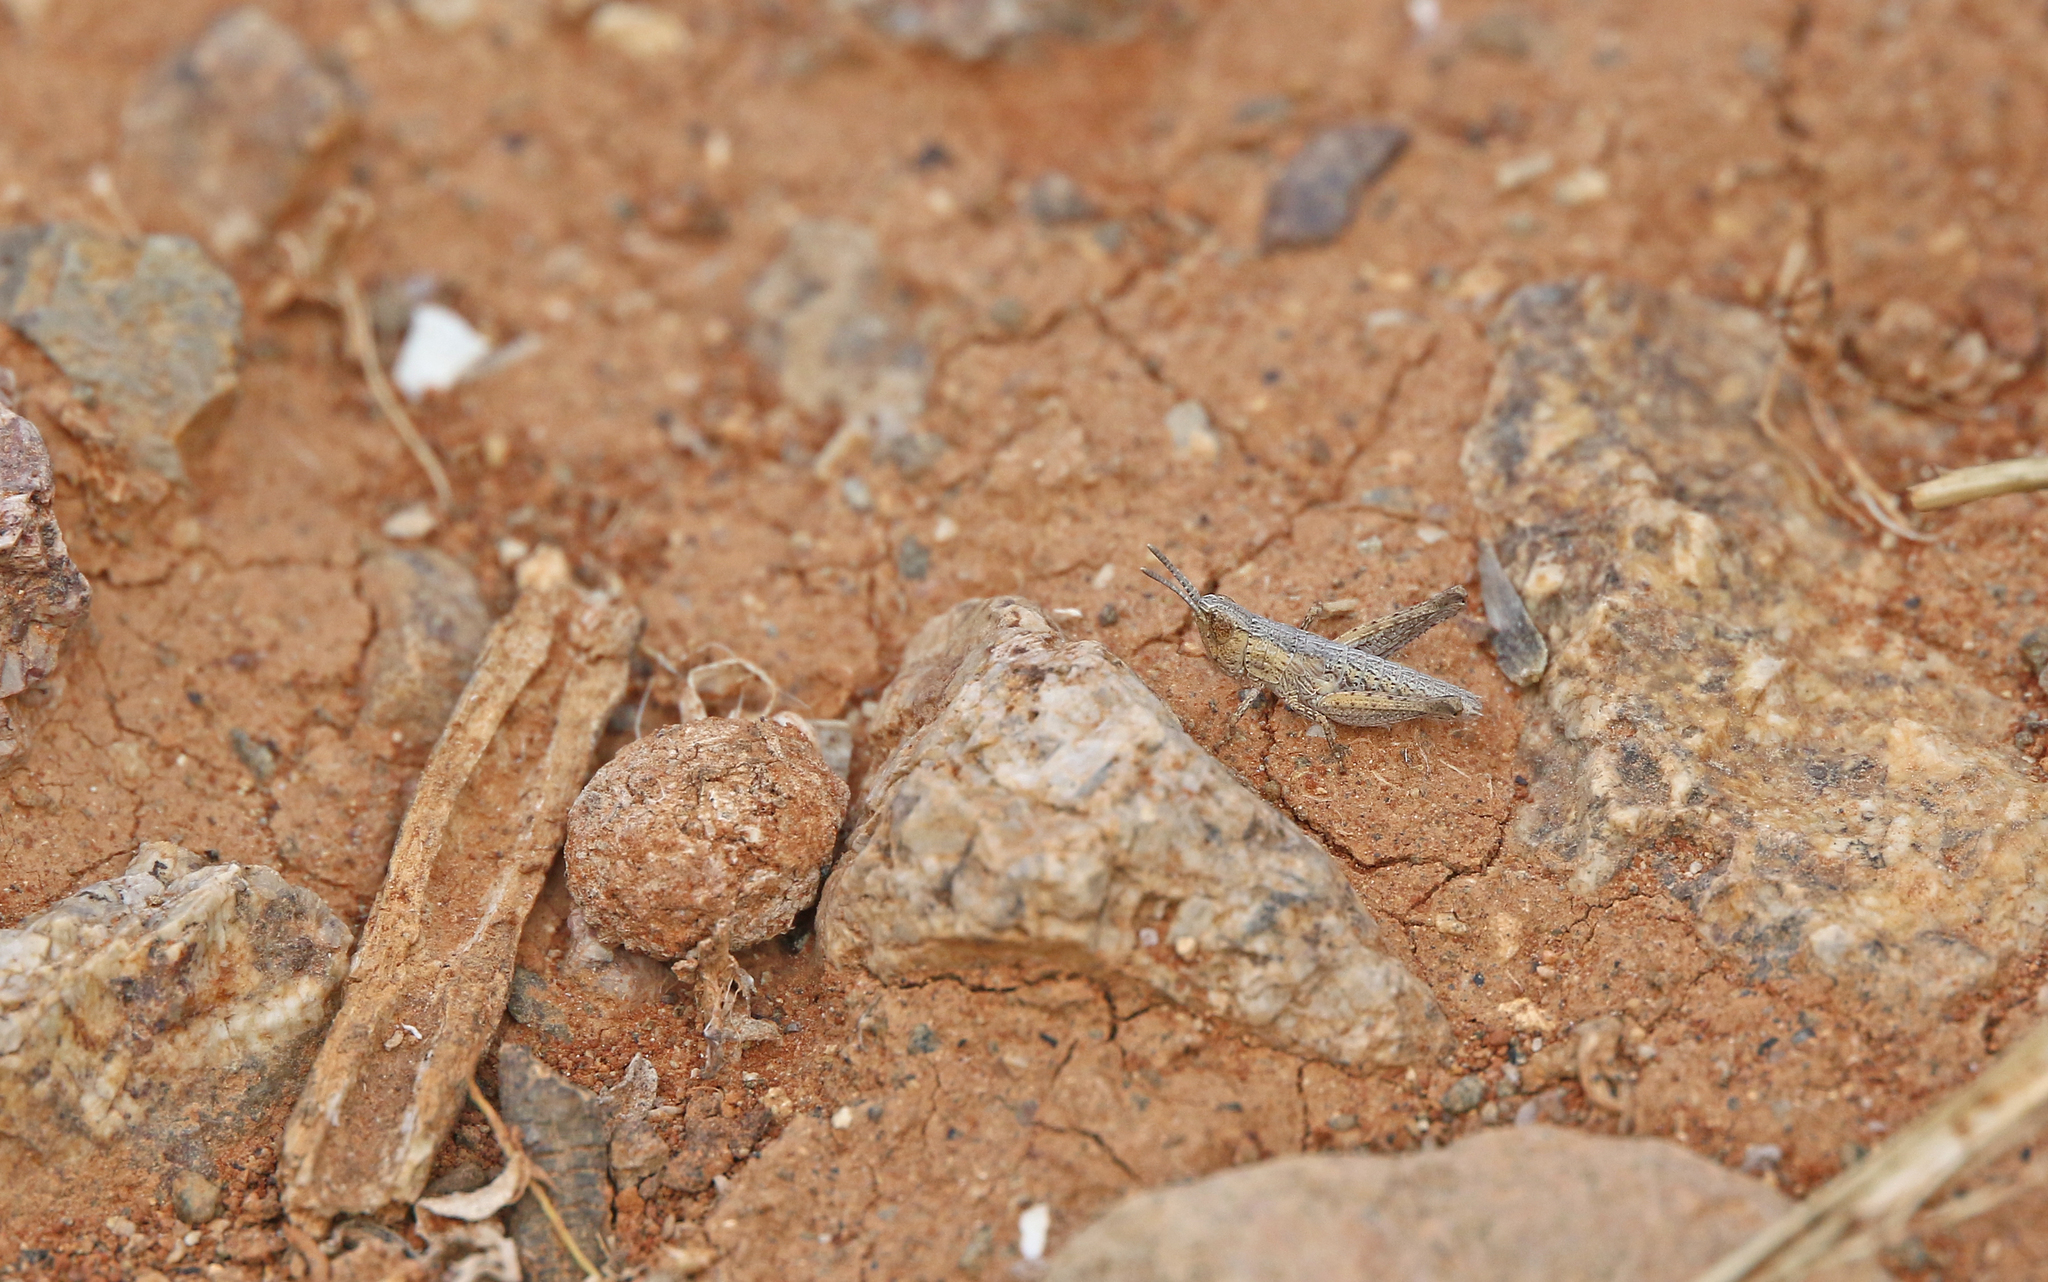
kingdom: Animalia
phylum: Arthropoda
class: Insecta
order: Orthoptera
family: Acrididae
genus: Arminda
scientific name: Arminda fuerteventurae
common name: Fuerteventura rock grasshopper
